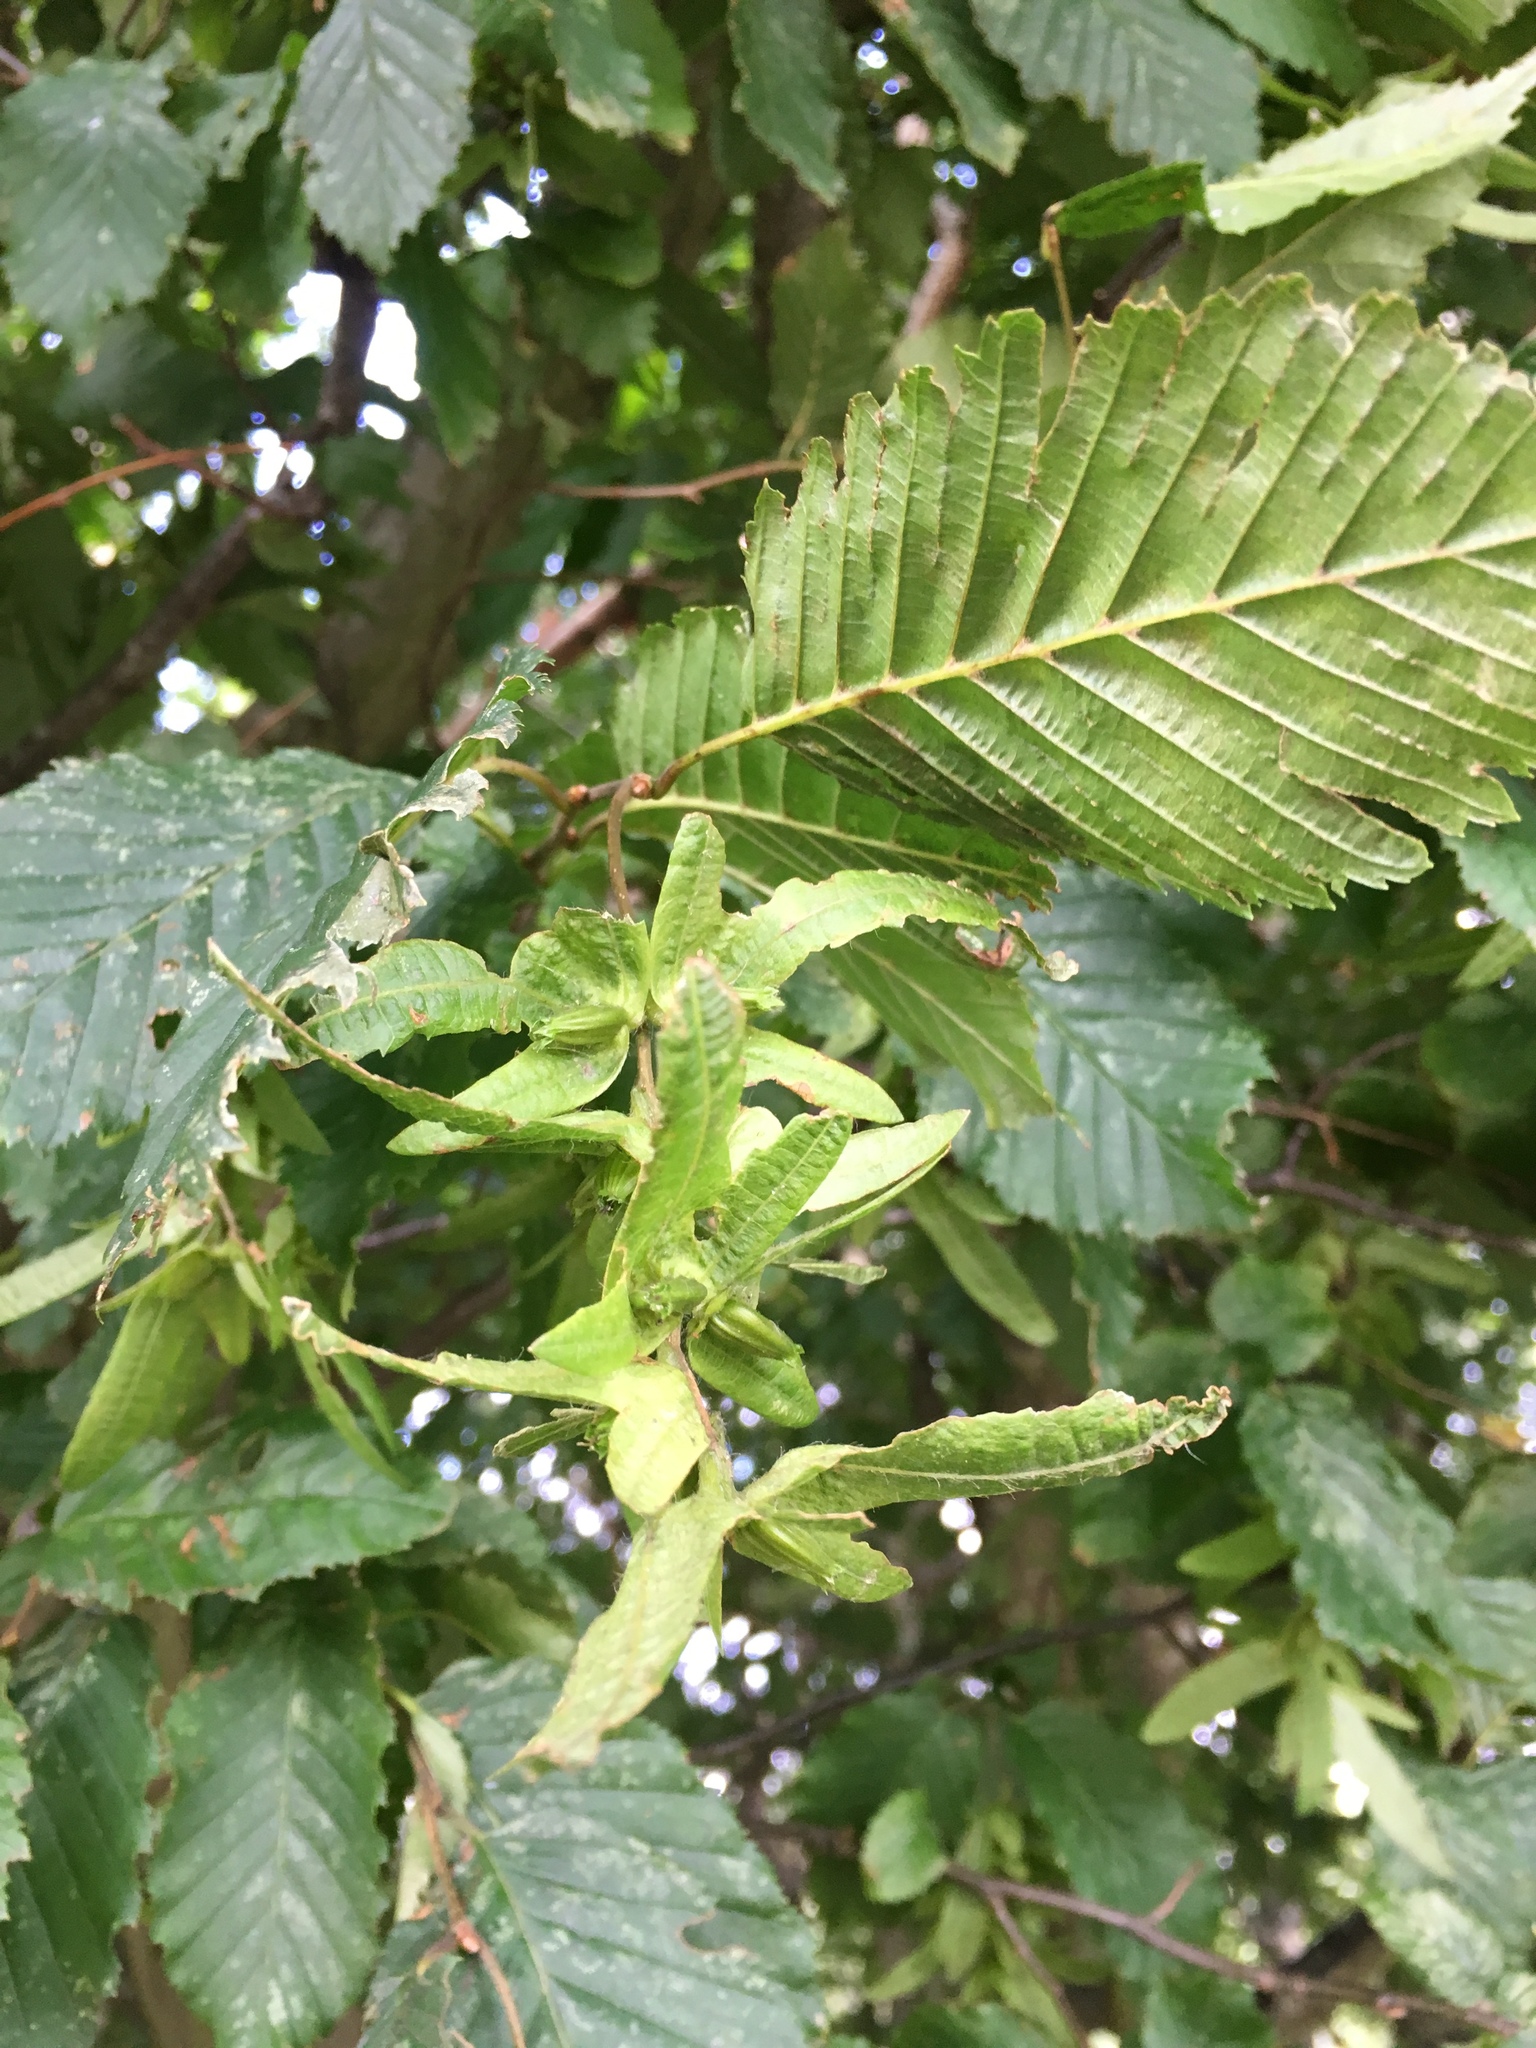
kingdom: Plantae
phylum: Tracheophyta
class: Magnoliopsida
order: Fagales
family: Betulaceae
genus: Carpinus
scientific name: Carpinus betulus
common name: Hornbeam
